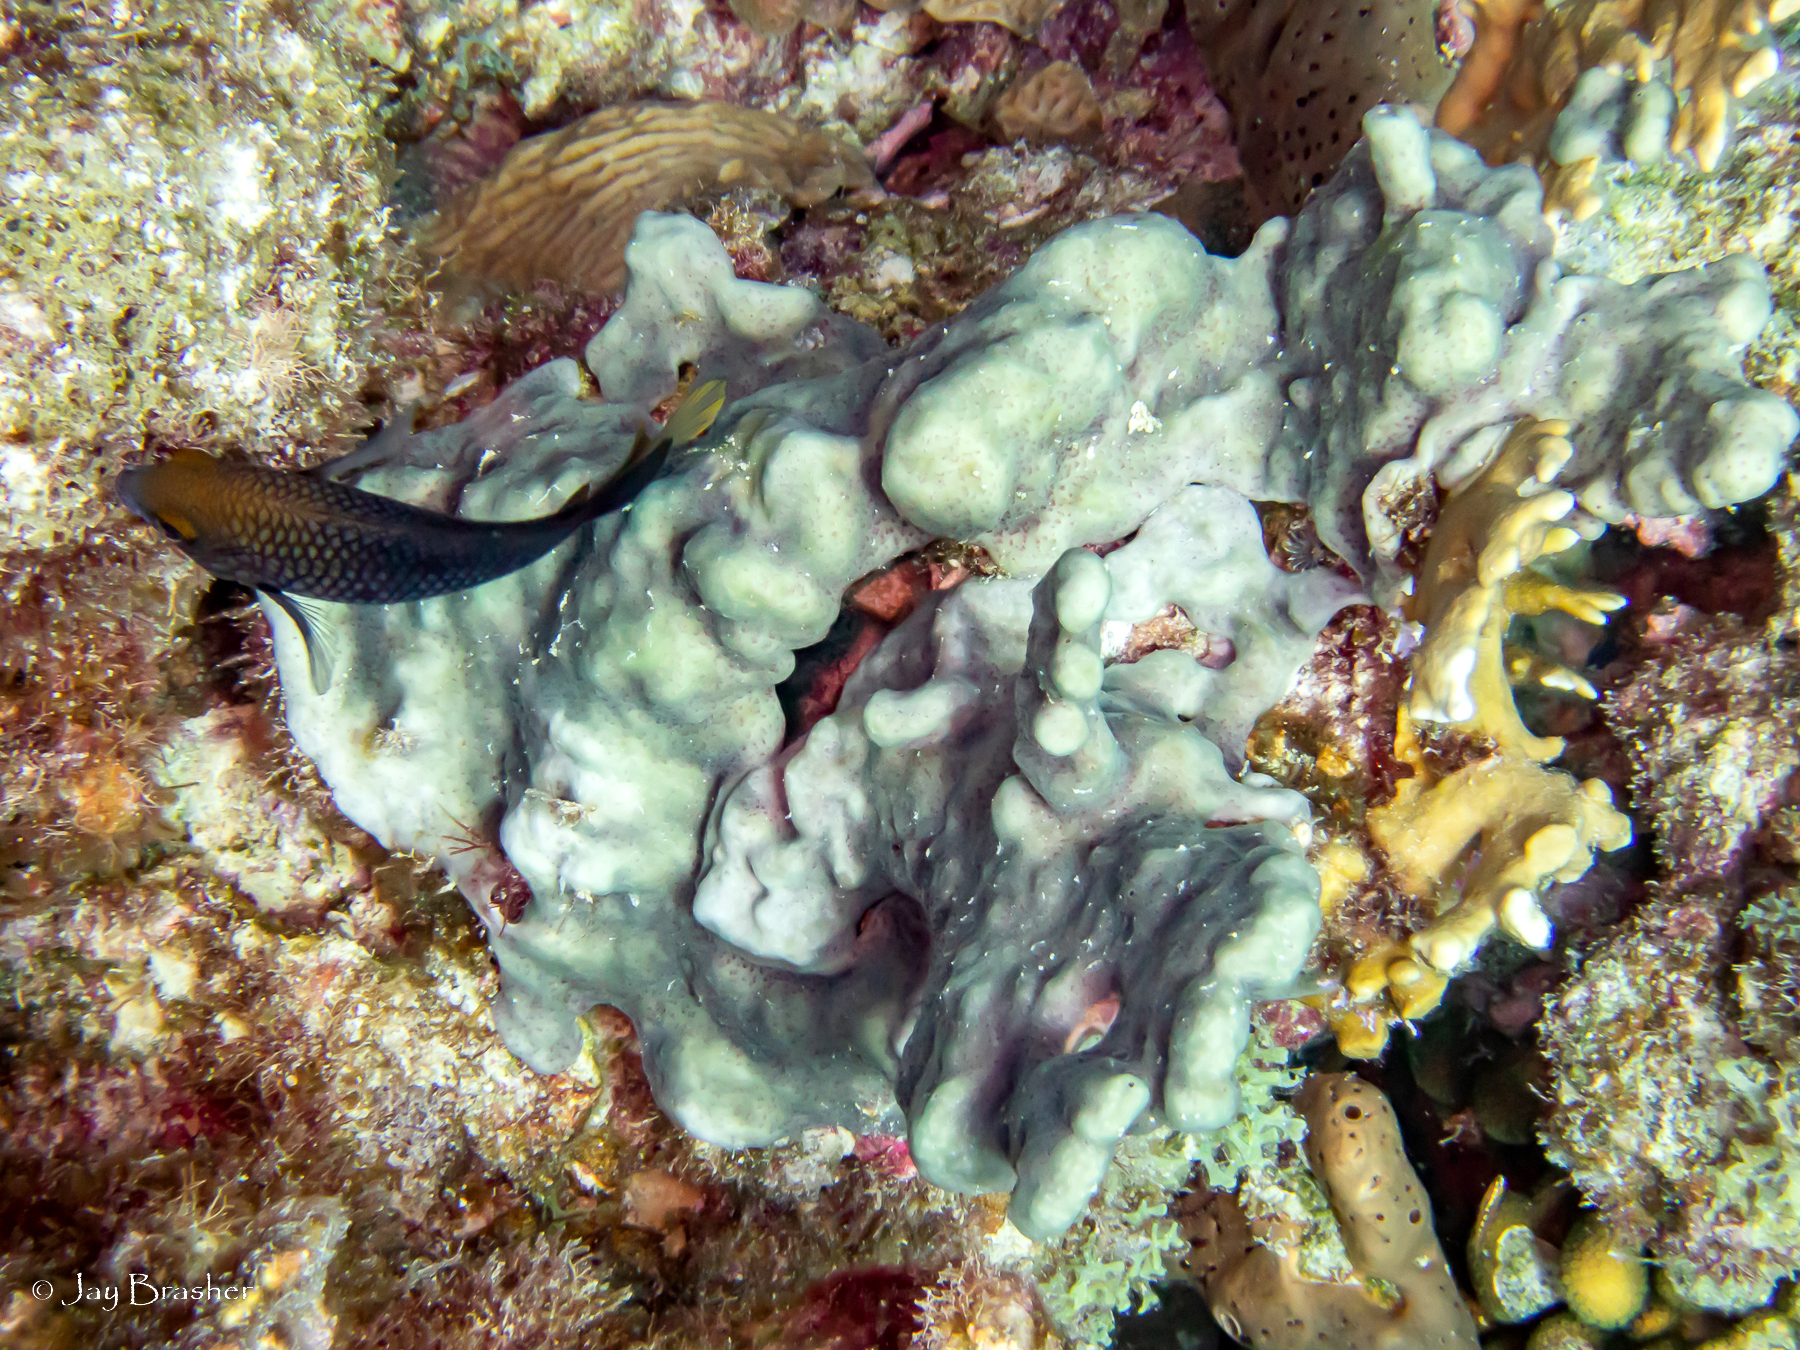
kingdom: Animalia
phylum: Chordata
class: Ascidiacea
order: Aplousobranchia
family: Didemnidae
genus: Trididemnum
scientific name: Trididemnum solidum
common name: Overgrowing mat tunicate
